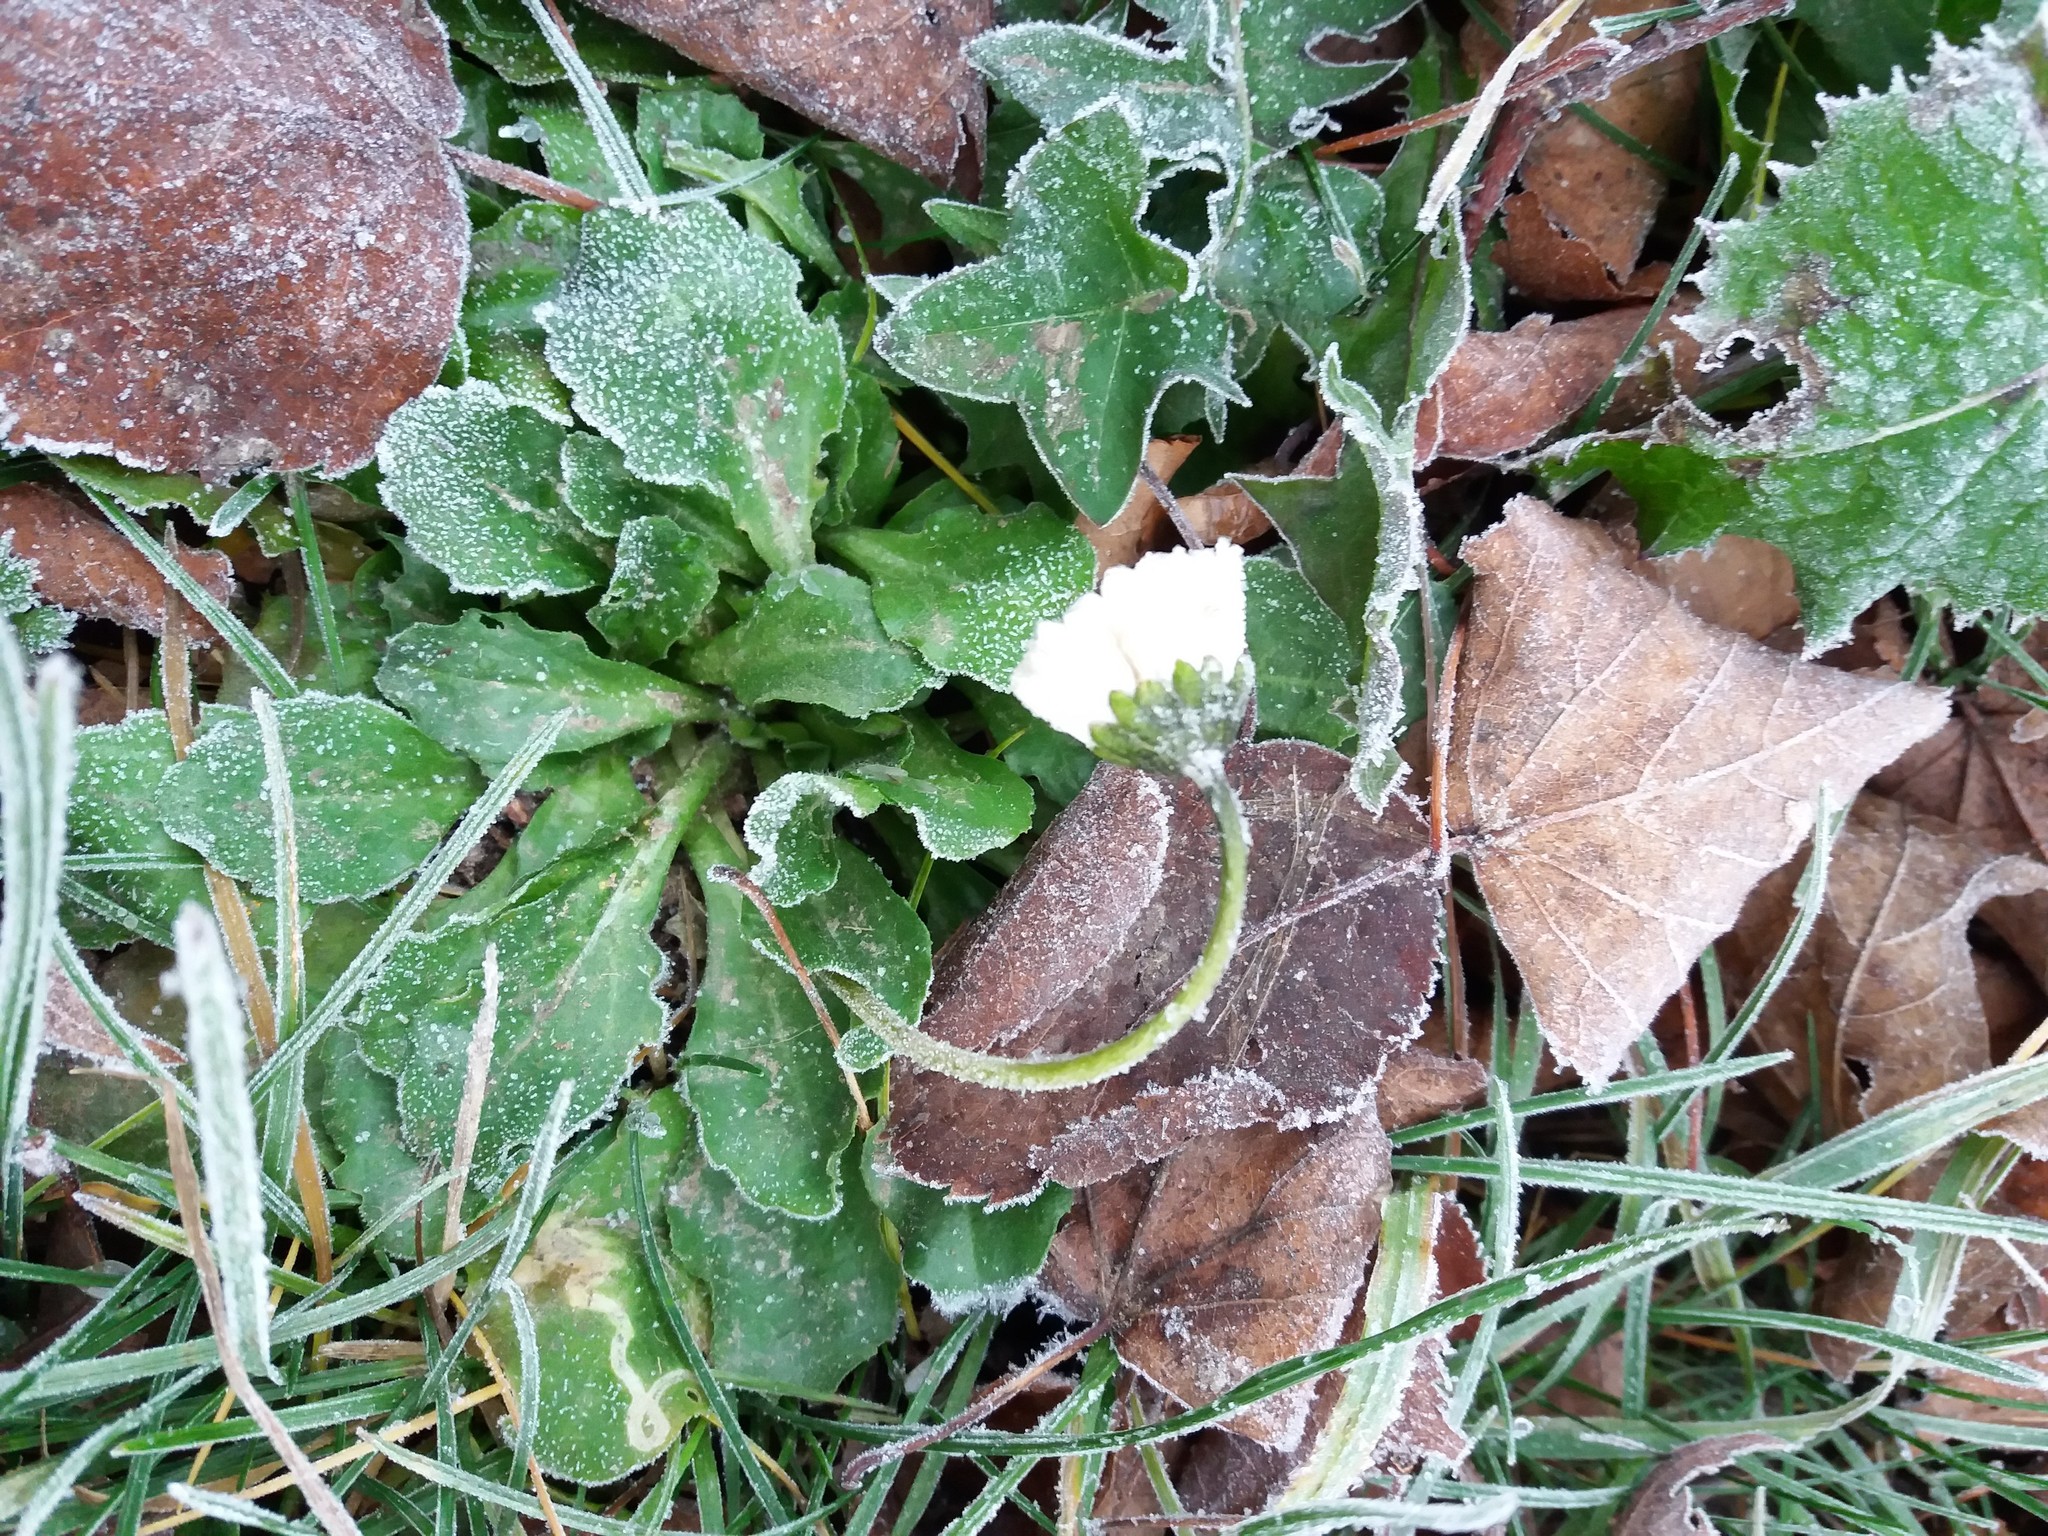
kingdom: Plantae
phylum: Tracheophyta
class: Magnoliopsida
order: Asterales
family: Asteraceae
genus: Bellis
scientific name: Bellis perennis
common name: Lawndaisy
